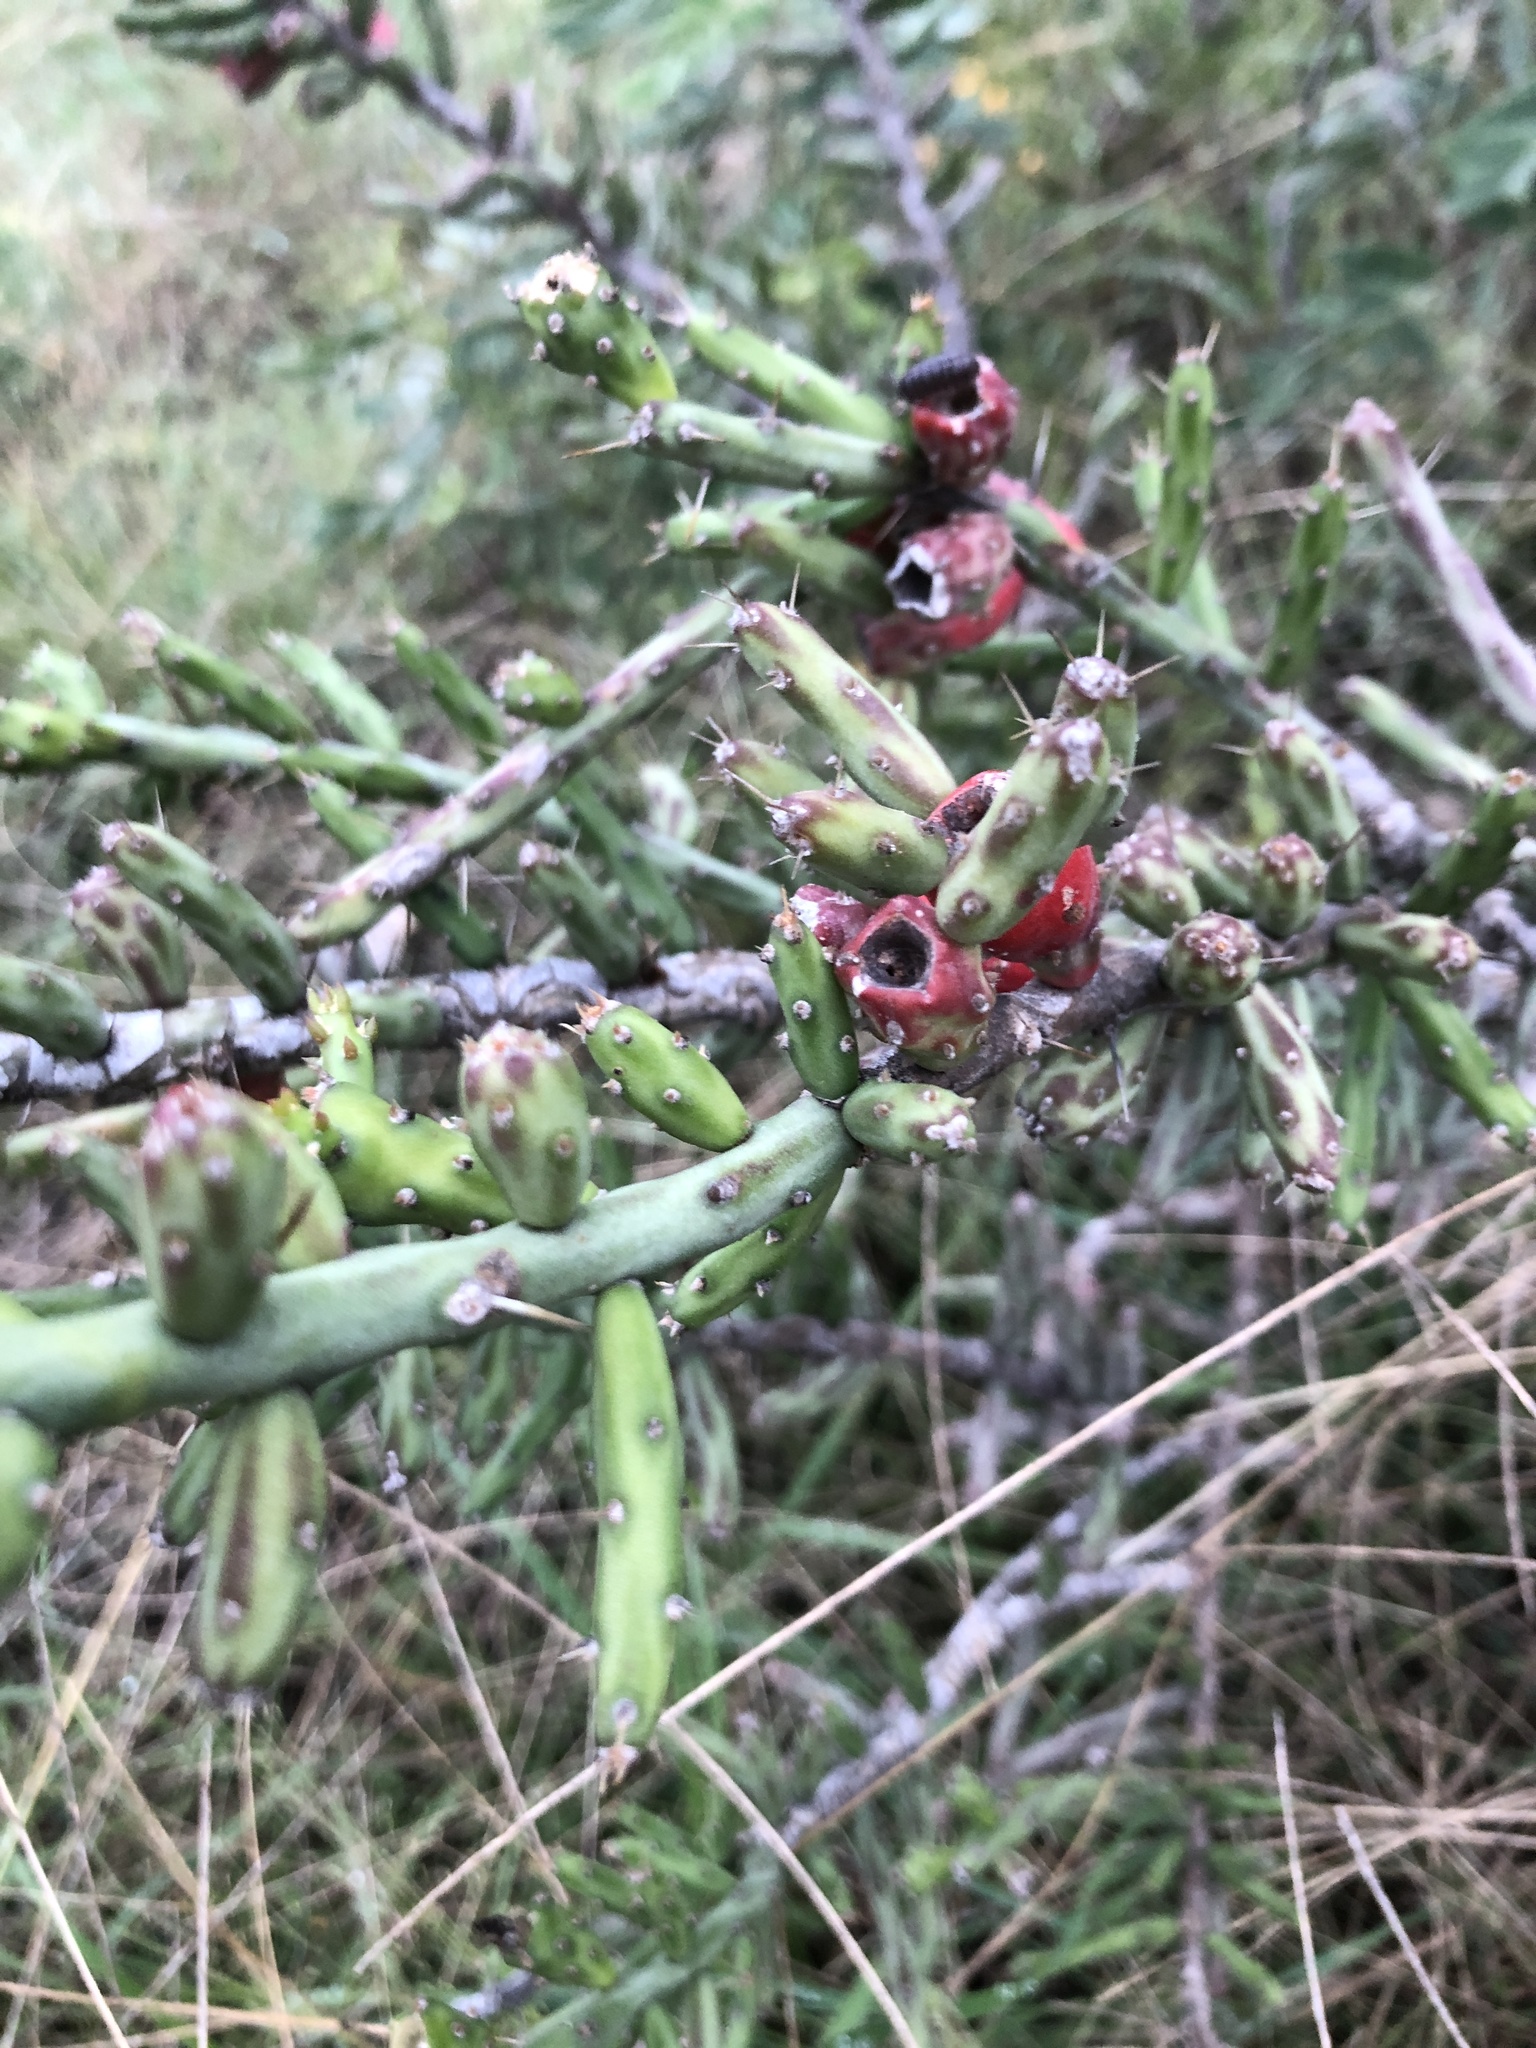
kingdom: Plantae
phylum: Tracheophyta
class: Magnoliopsida
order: Caryophyllales
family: Cactaceae
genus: Cylindropuntia
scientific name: Cylindropuntia leptocaulis
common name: Christmas cactus
